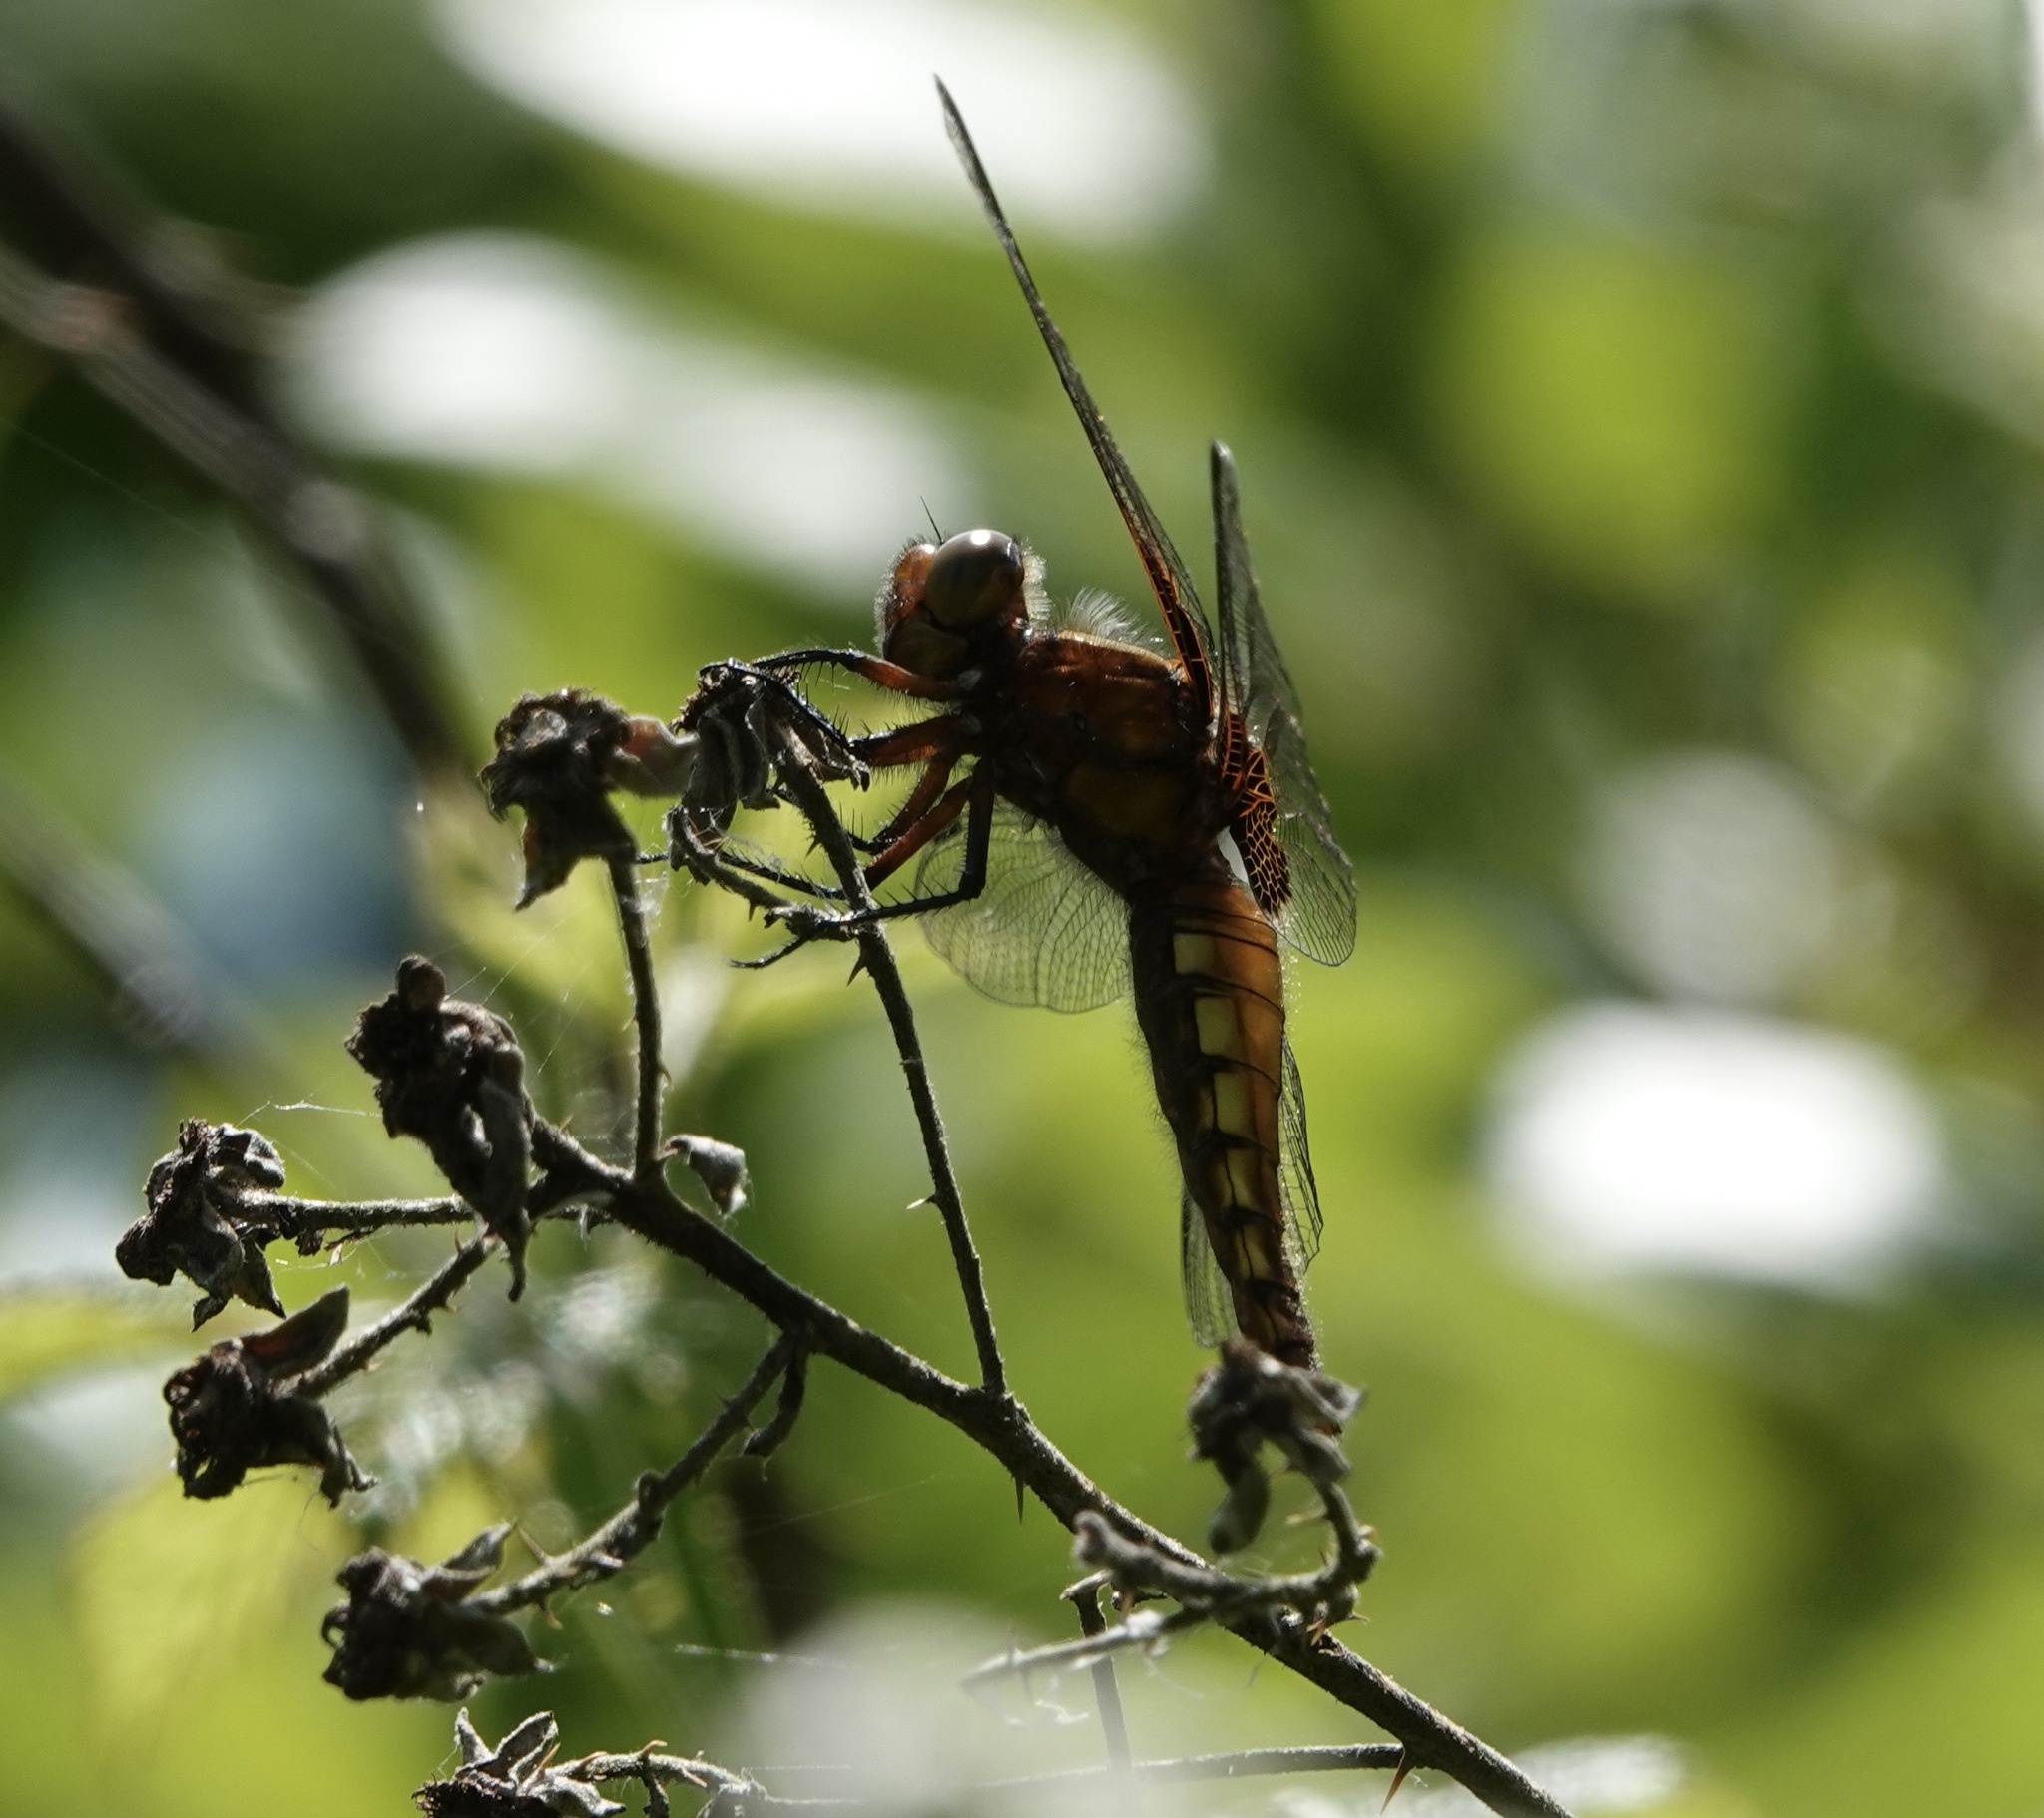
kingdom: Animalia
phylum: Arthropoda
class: Insecta
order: Odonata
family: Libellulidae
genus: Libellula
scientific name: Libellula depressa
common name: Broad-bodied chaser
